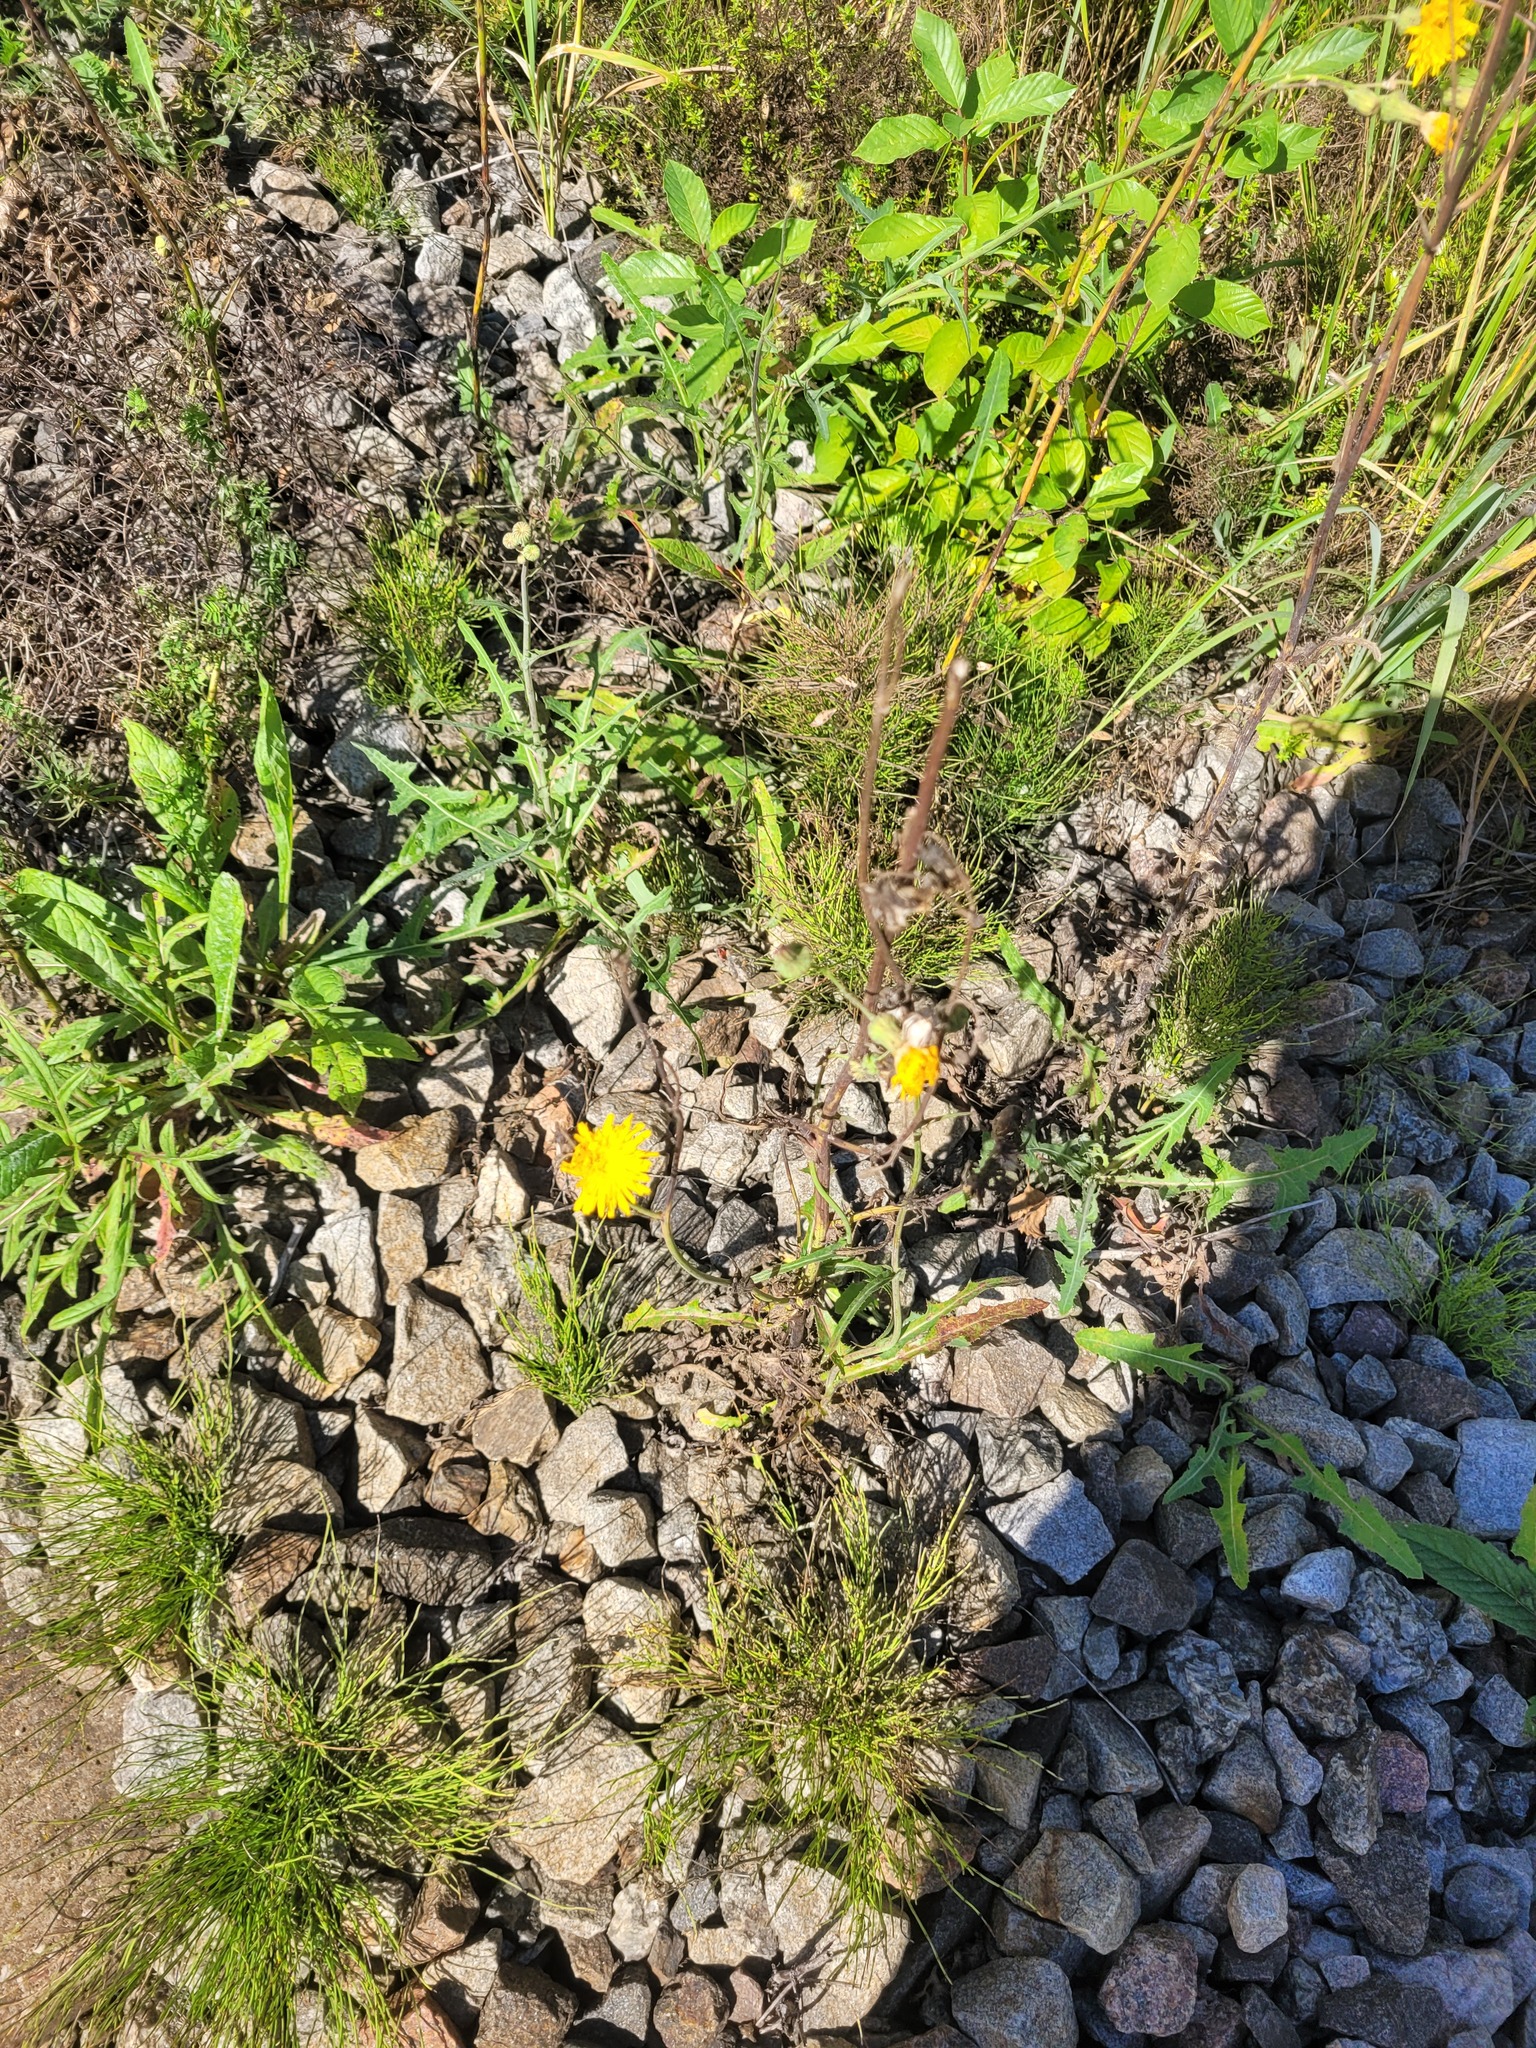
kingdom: Plantae
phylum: Tracheophyta
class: Magnoliopsida
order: Asterales
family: Asteraceae
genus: Sonchus
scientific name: Sonchus arvensis
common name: Perennial sow-thistle
